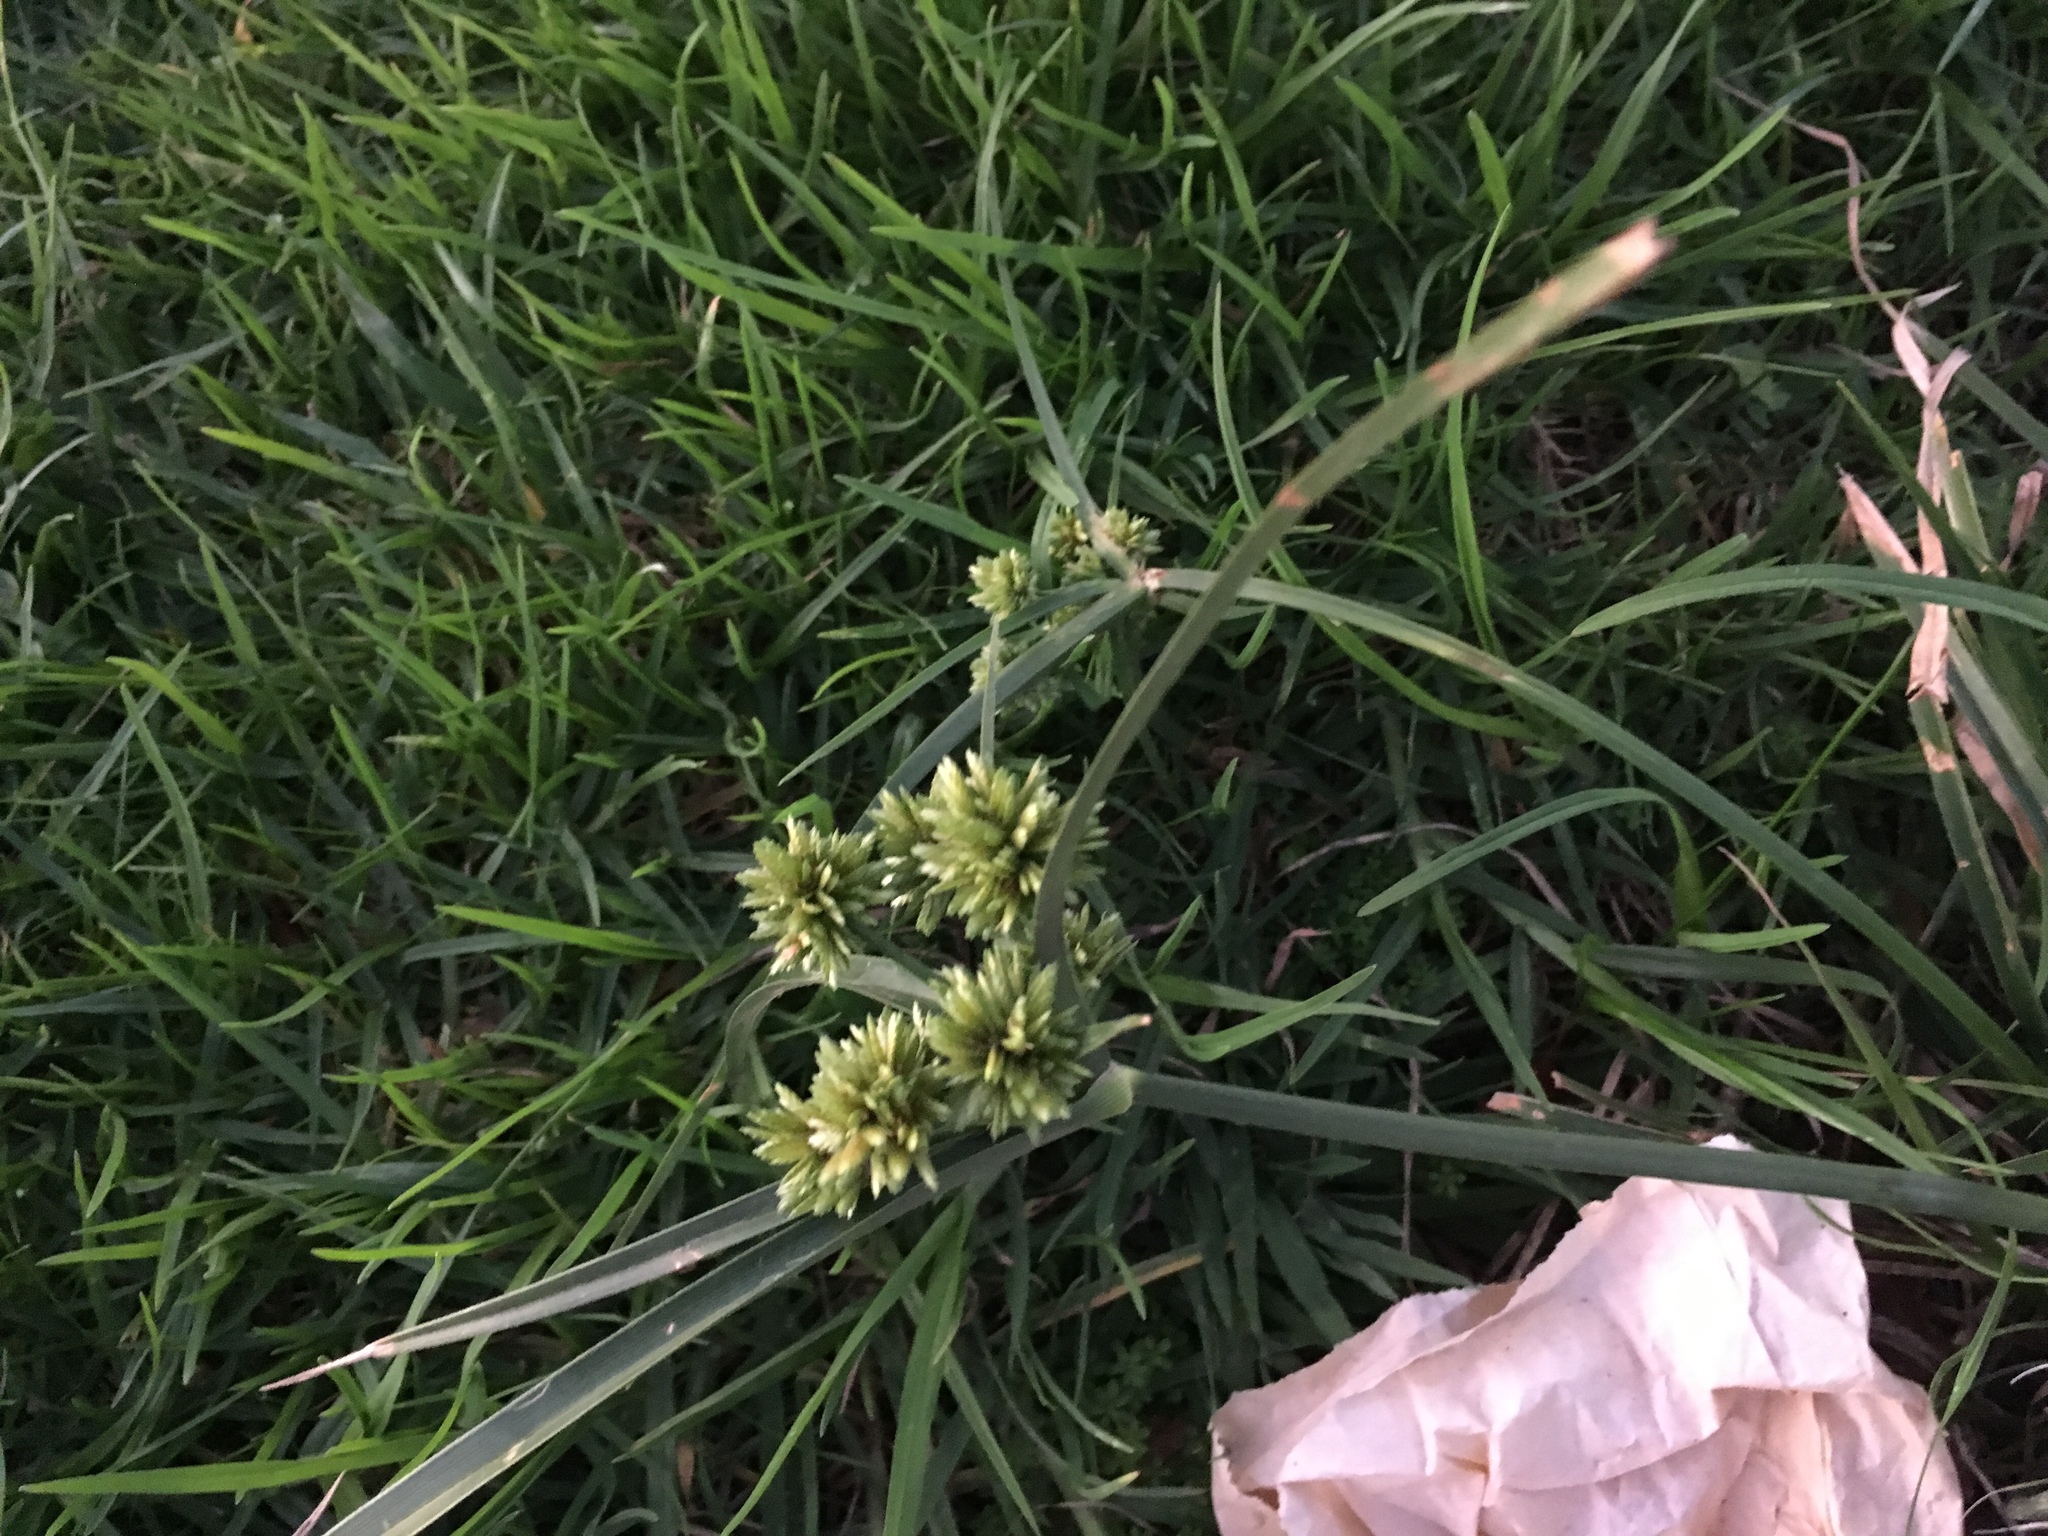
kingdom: Plantae
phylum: Tracheophyta
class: Liliopsida
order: Poales
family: Cyperaceae
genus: Cyperus
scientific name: Cyperus eragrostis
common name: Tall flatsedge
